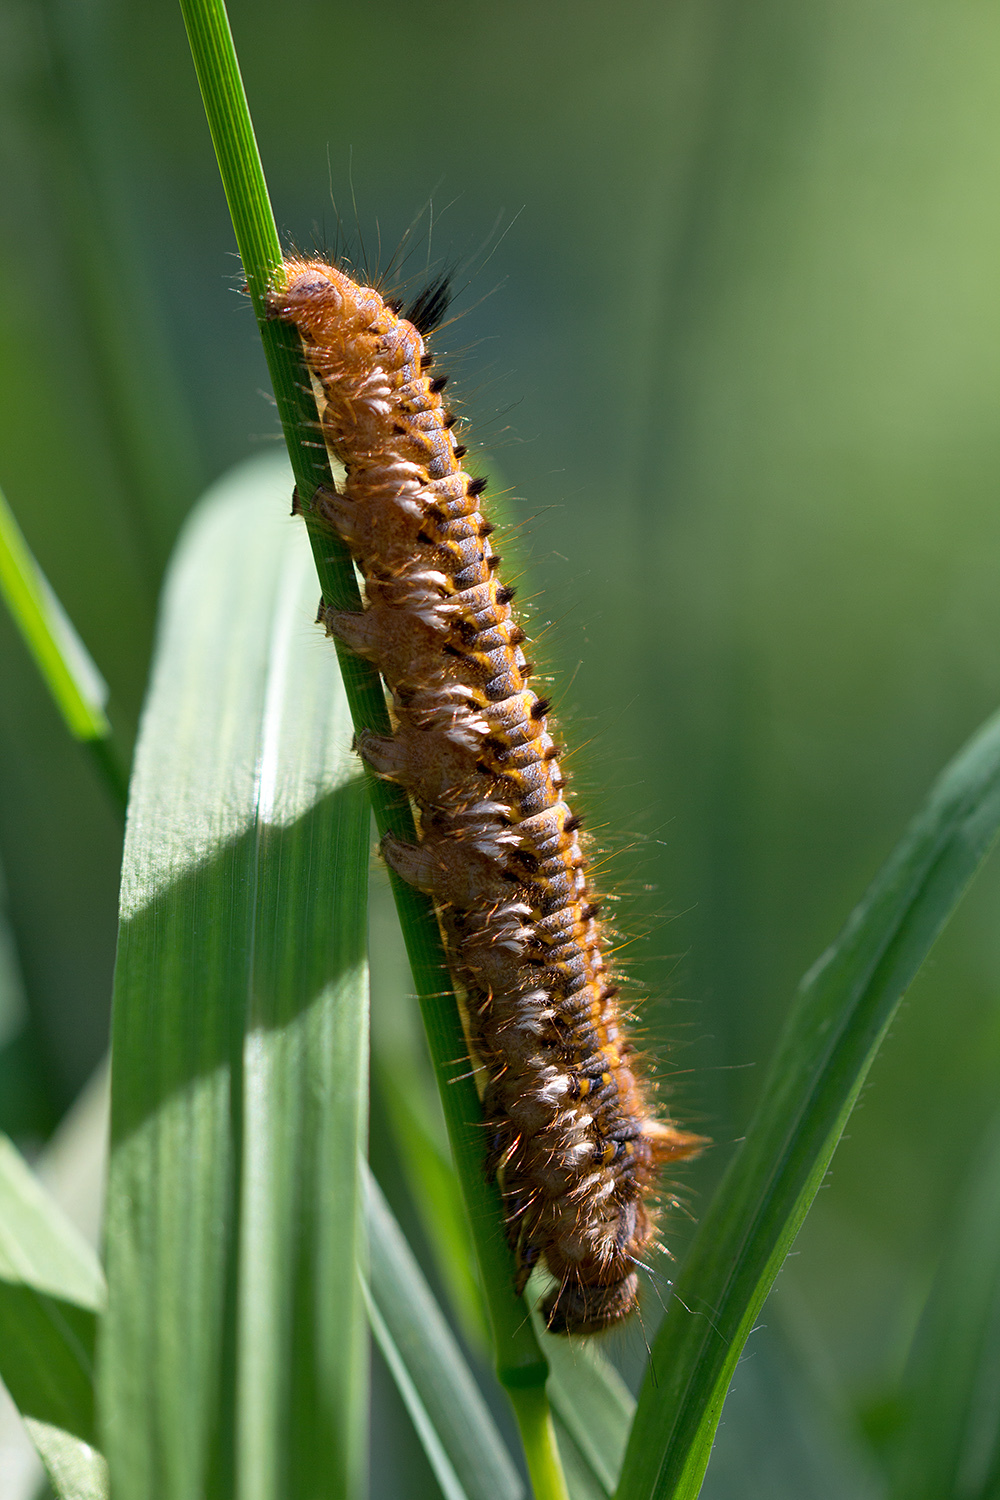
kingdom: Animalia
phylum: Arthropoda
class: Insecta
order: Lepidoptera
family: Lasiocampidae
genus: Euthrix
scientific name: Euthrix potatoria
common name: Drinker
